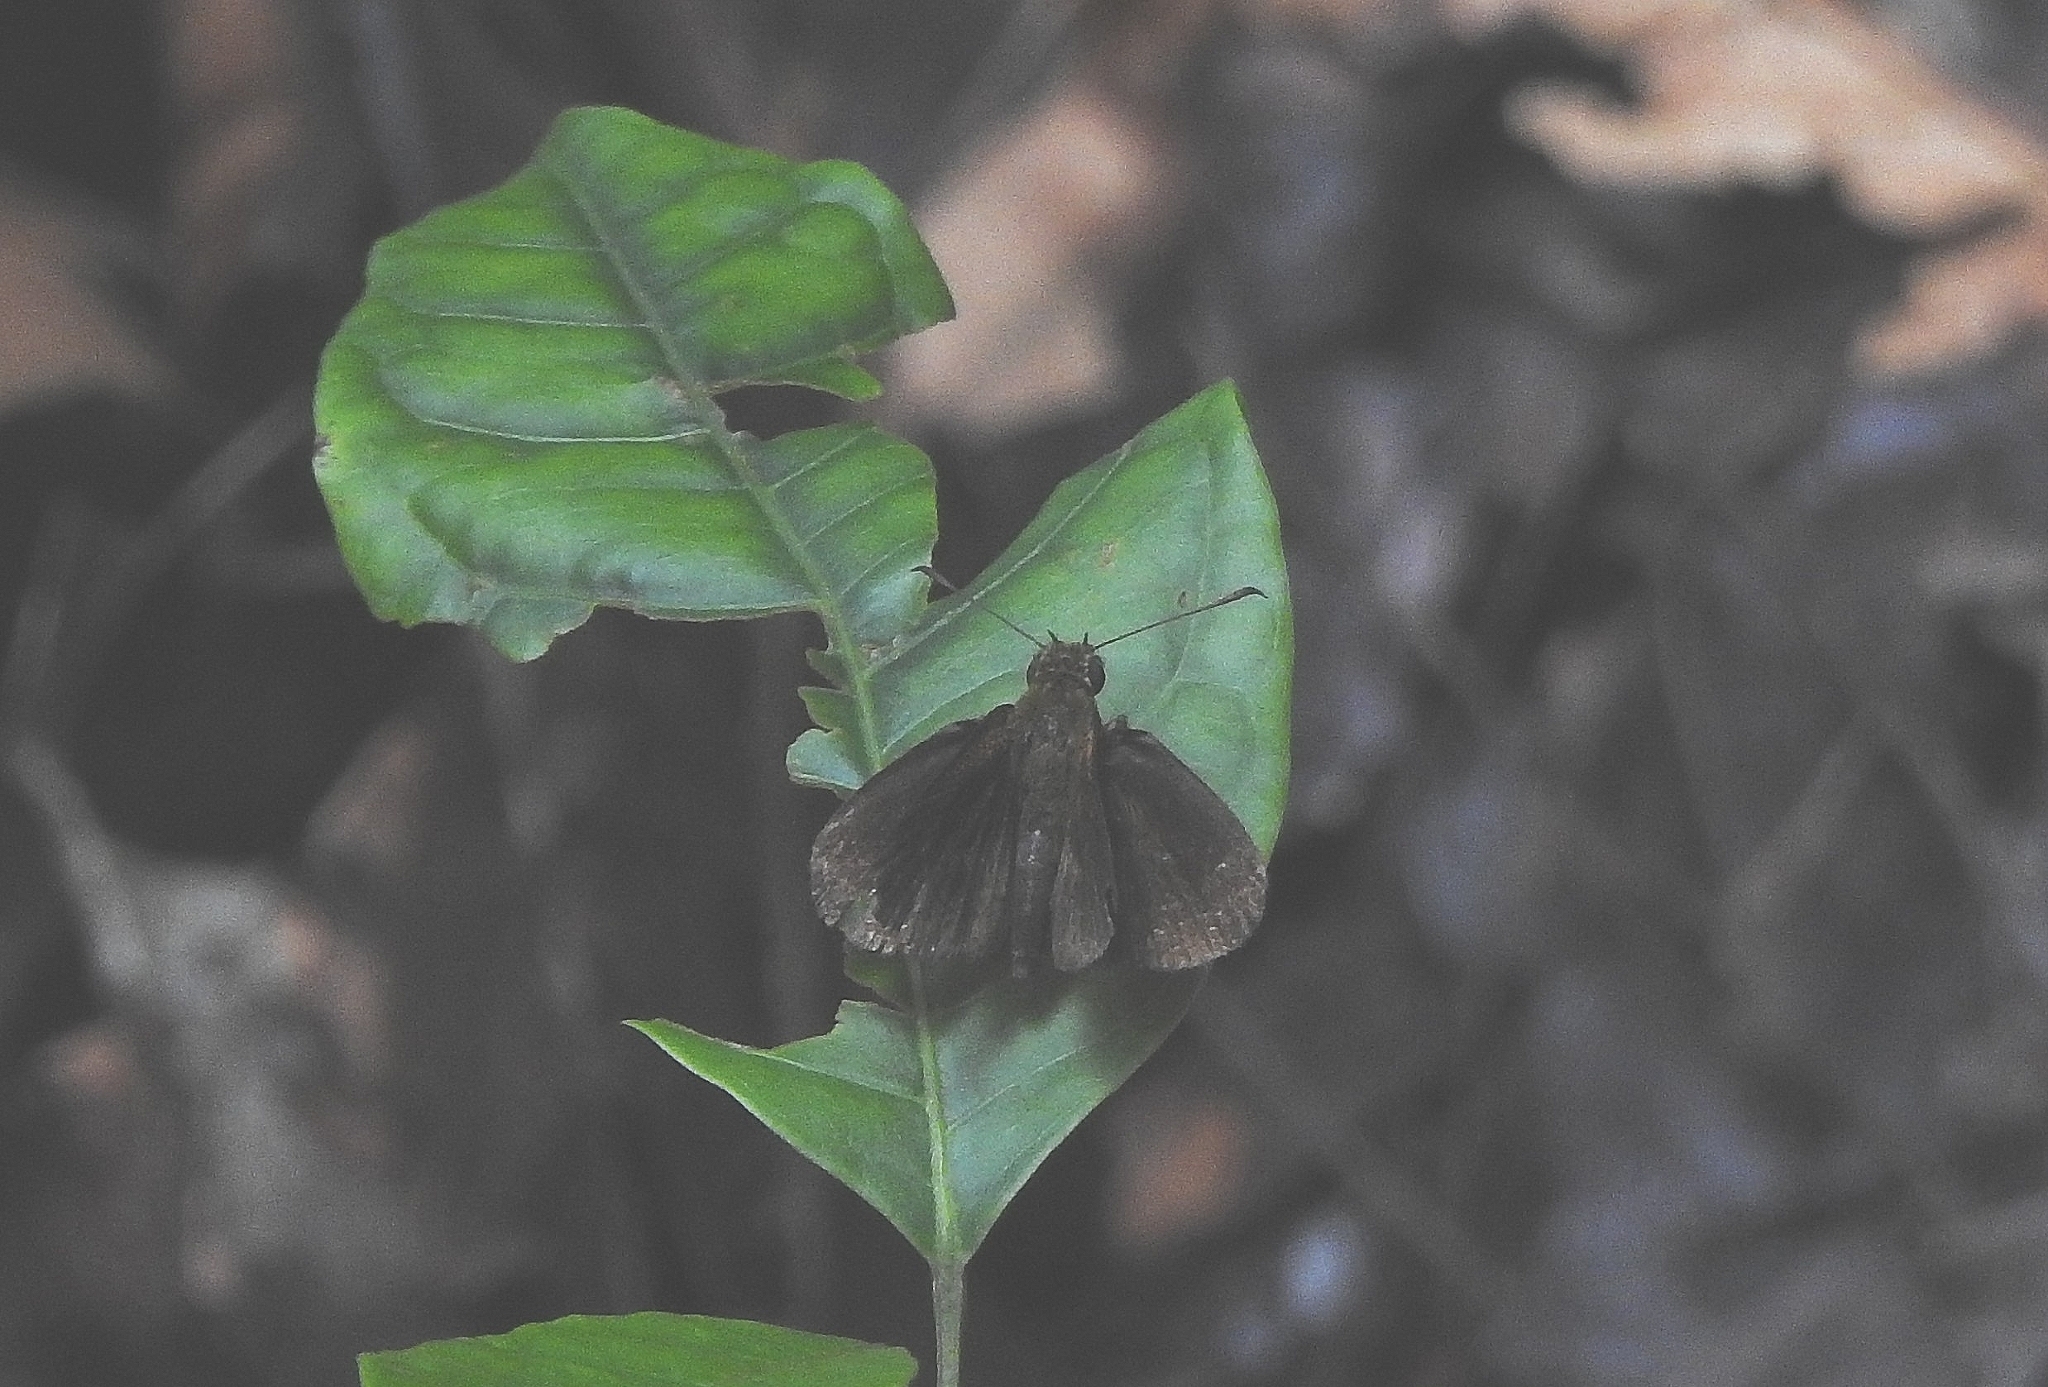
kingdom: Animalia
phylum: Arthropoda
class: Insecta
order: Lepidoptera
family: Hesperiidae
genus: Iambrix
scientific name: Iambrix salsala
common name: Chestnut bob
